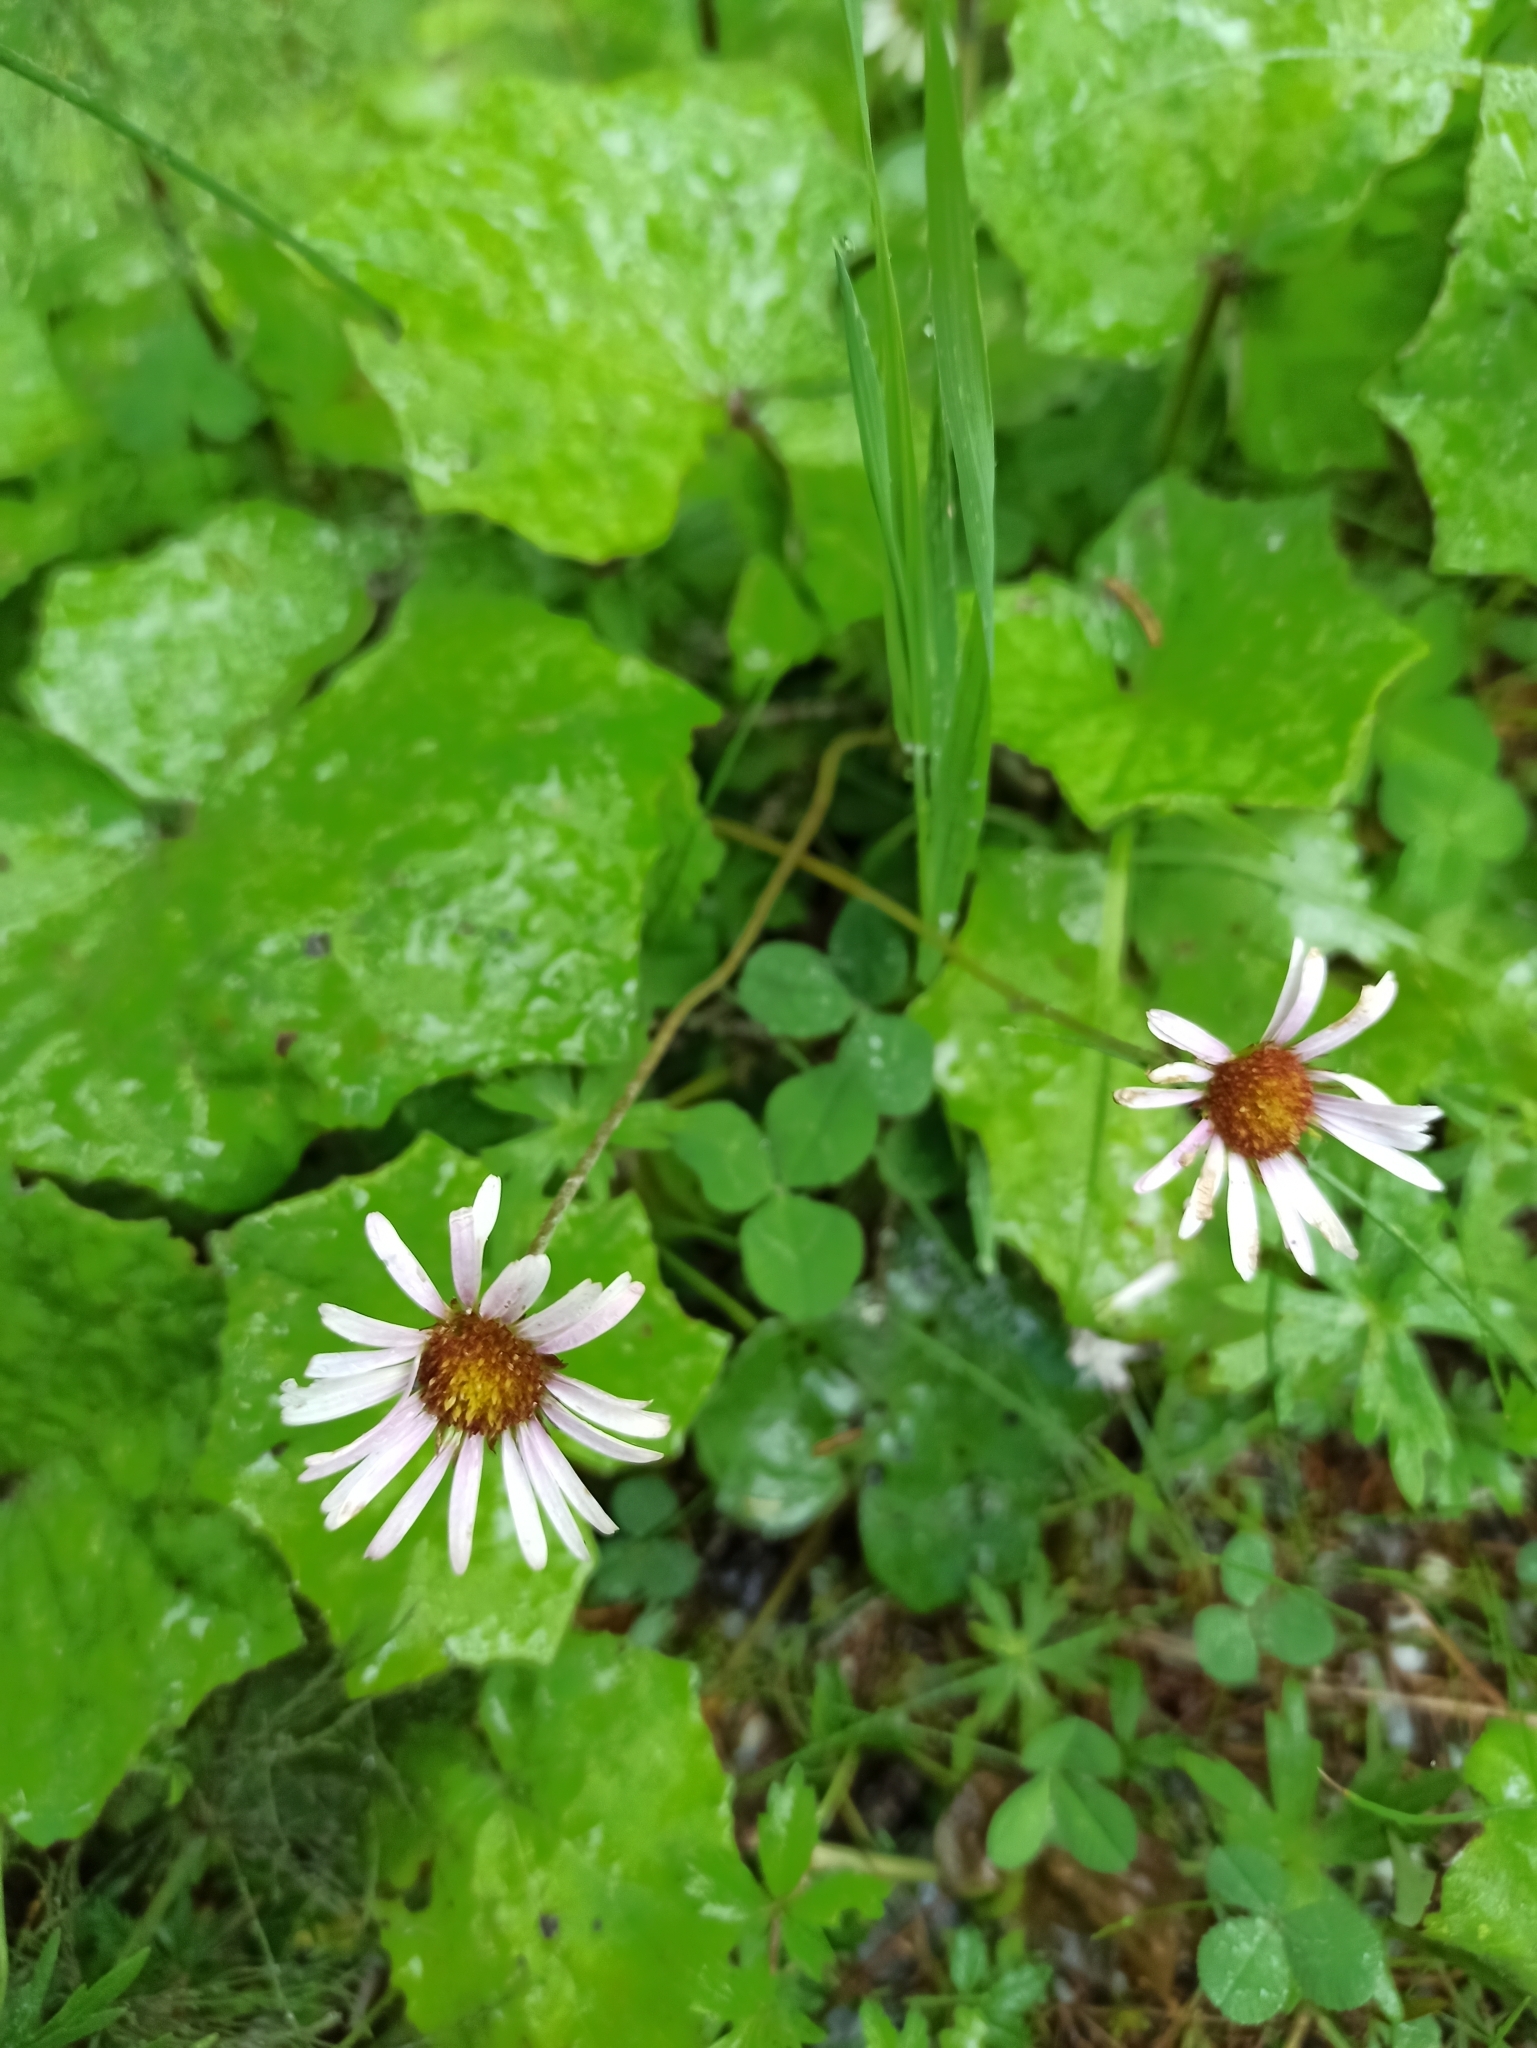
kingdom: Plantae
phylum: Tracheophyta
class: Magnoliopsida
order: Asterales
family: Asteraceae
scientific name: Asteraceae
